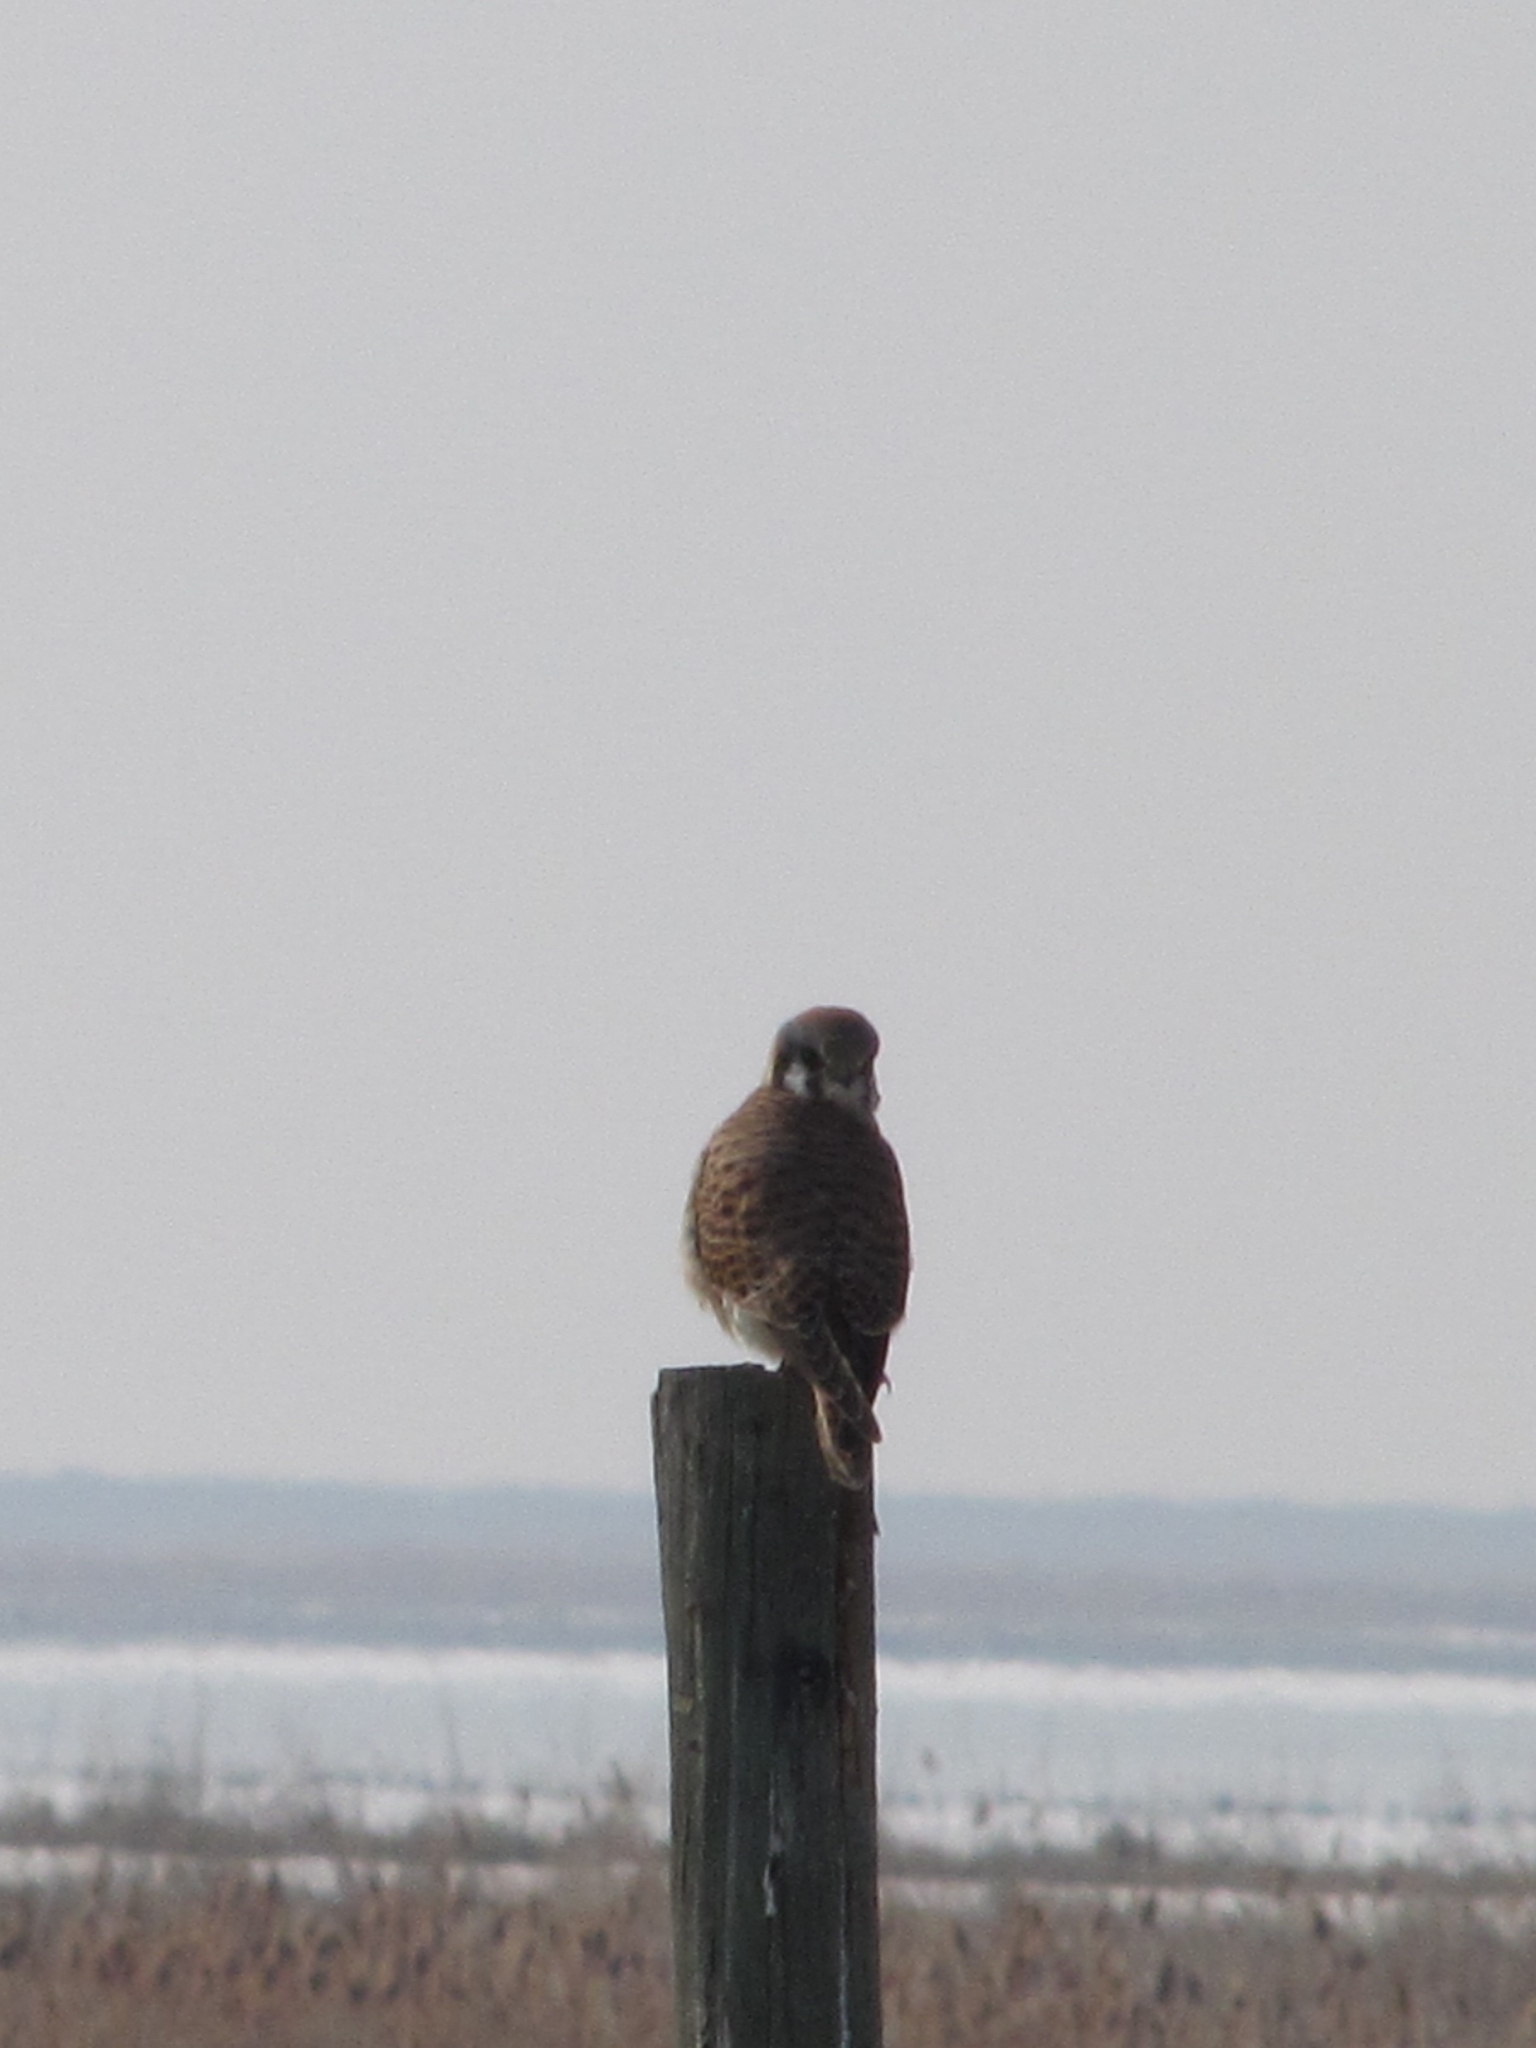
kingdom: Animalia
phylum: Chordata
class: Aves
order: Falconiformes
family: Falconidae
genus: Falco
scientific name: Falco sparverius
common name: American kestrel
